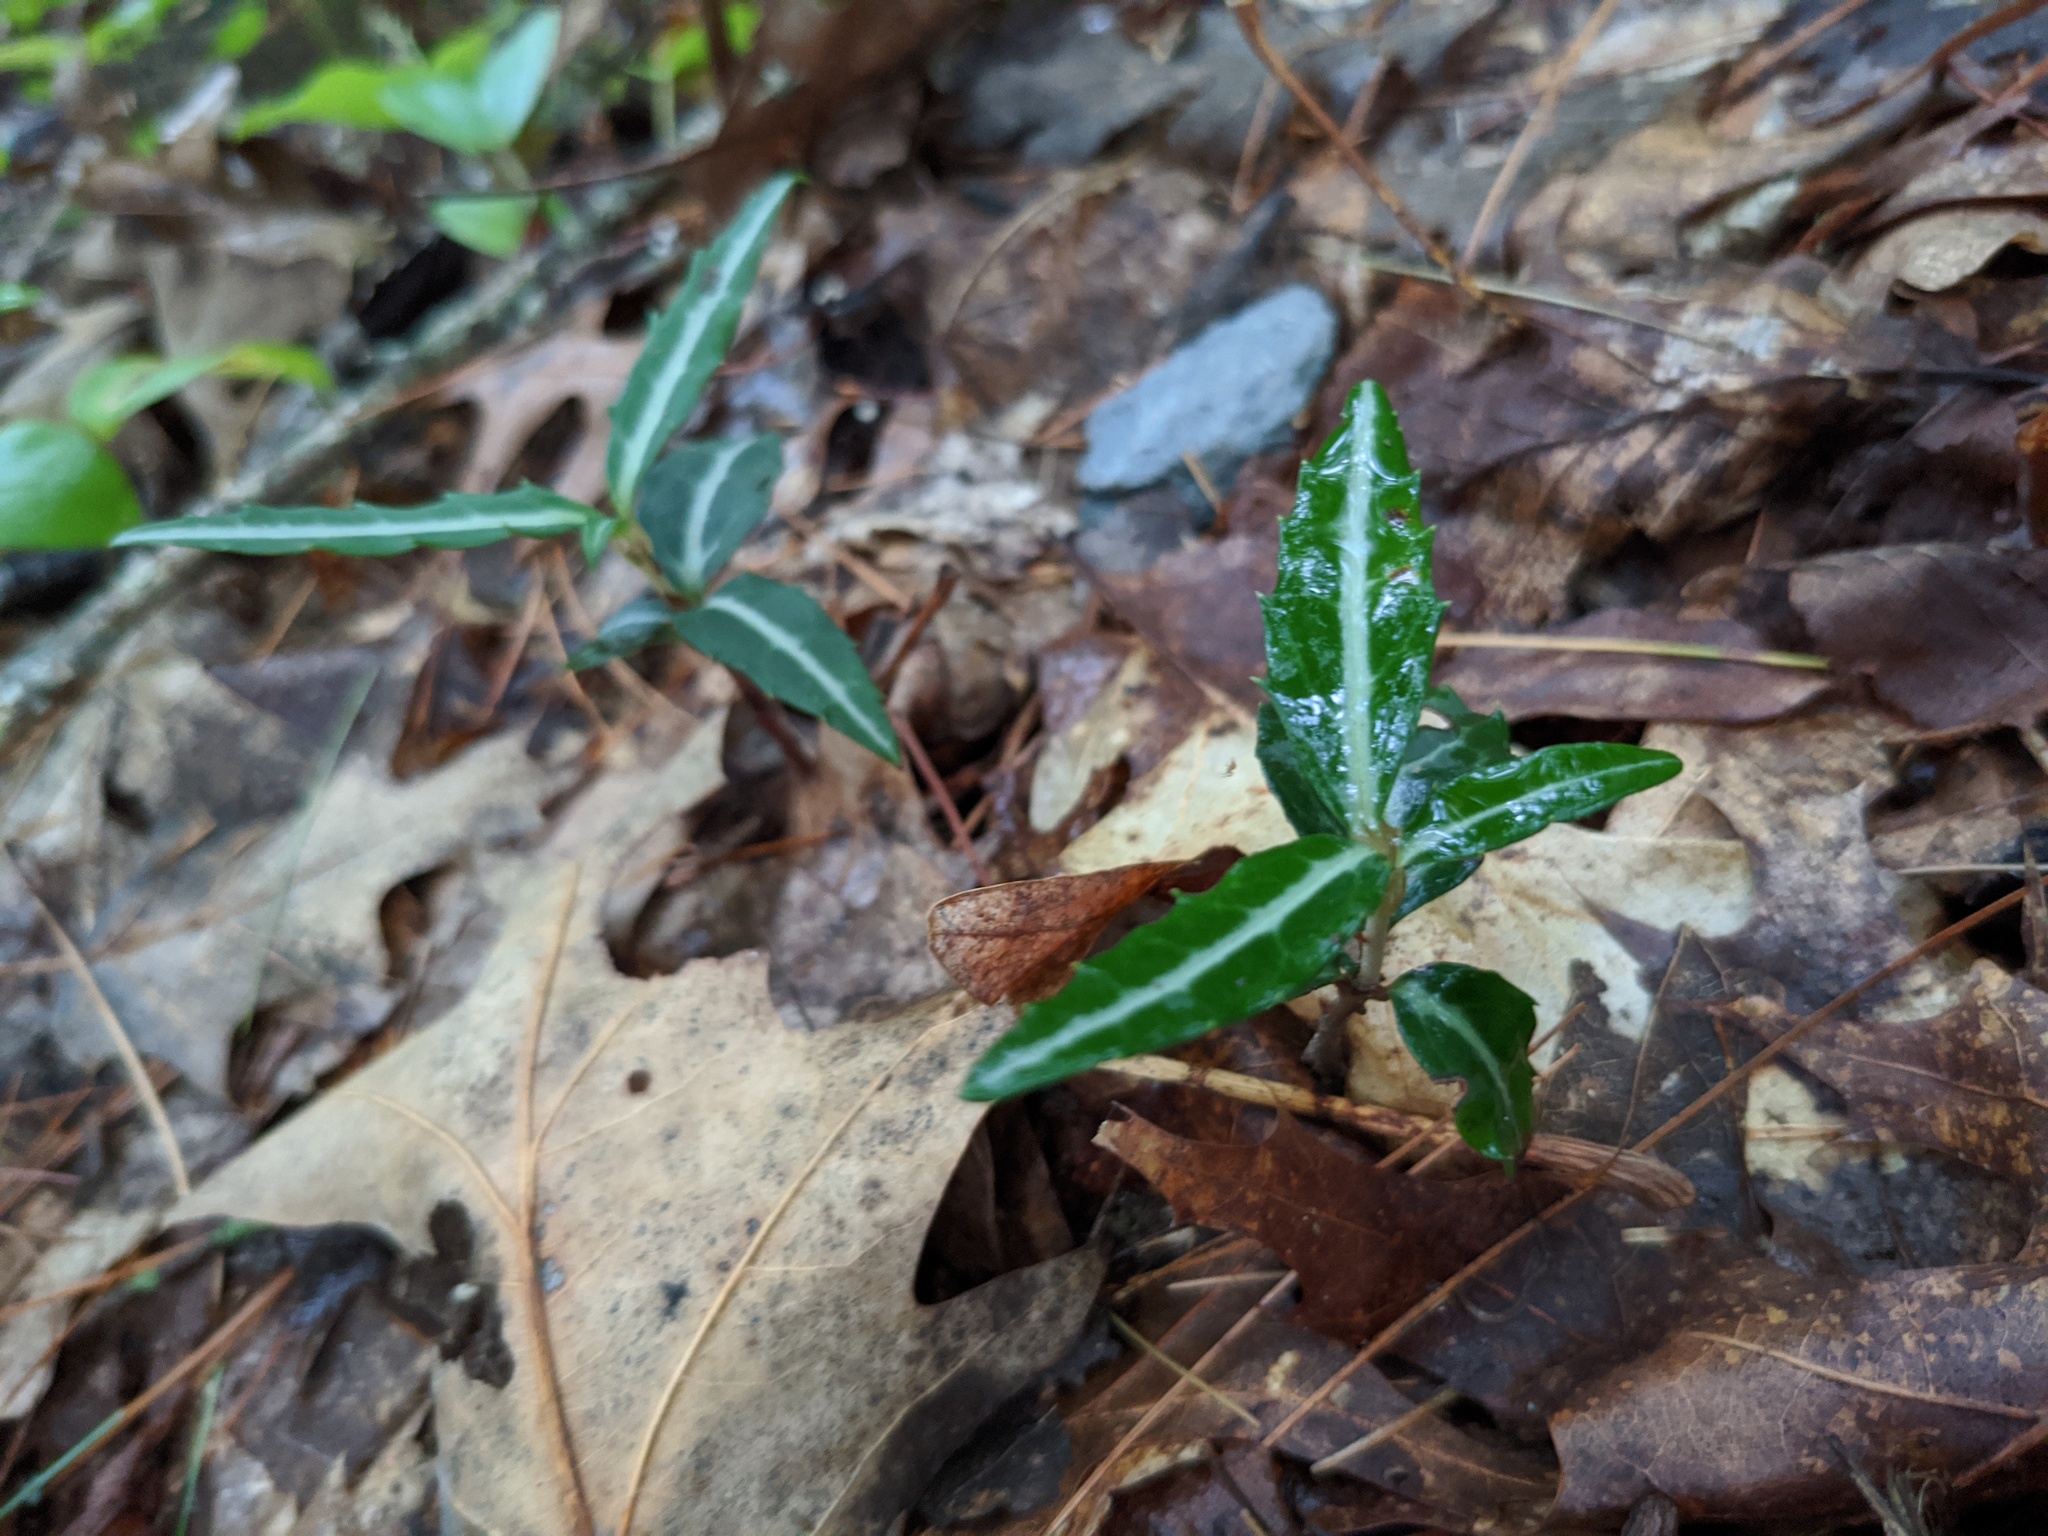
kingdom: Plantae
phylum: Tracheophyta
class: Magnoliopsida
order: Ericales
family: Ericaceae
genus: Chimaphila
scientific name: Chimaphila maculata
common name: Spotted pipsissewa
